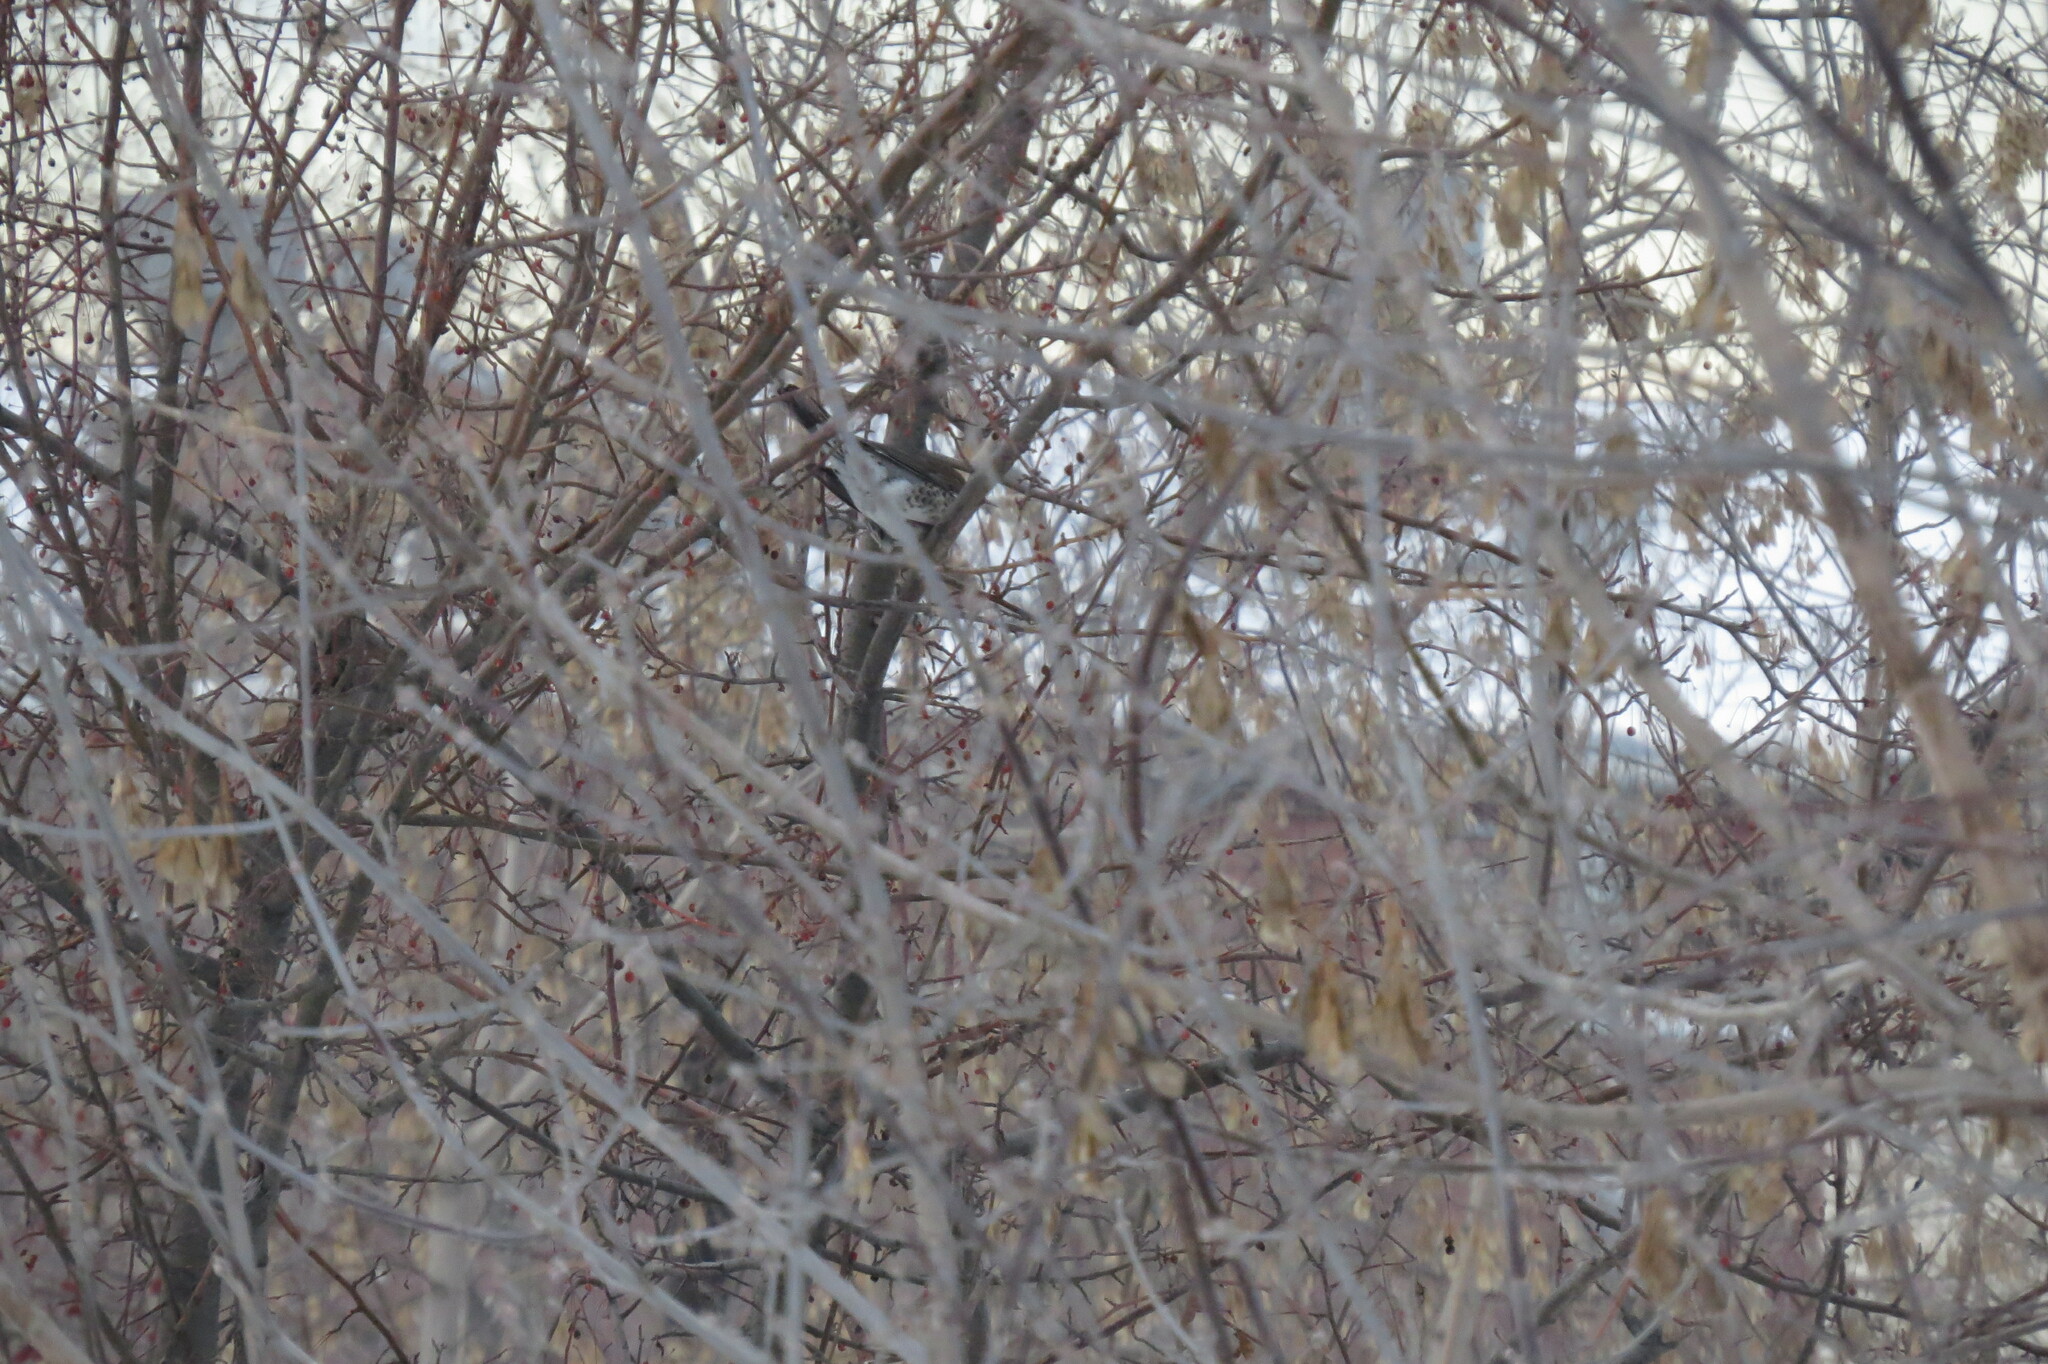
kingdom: Animalia
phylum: Chordata
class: Aves
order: Passeriformes
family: Turdidae
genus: Turdus
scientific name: Turdus pilaris
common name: Fieldfare
